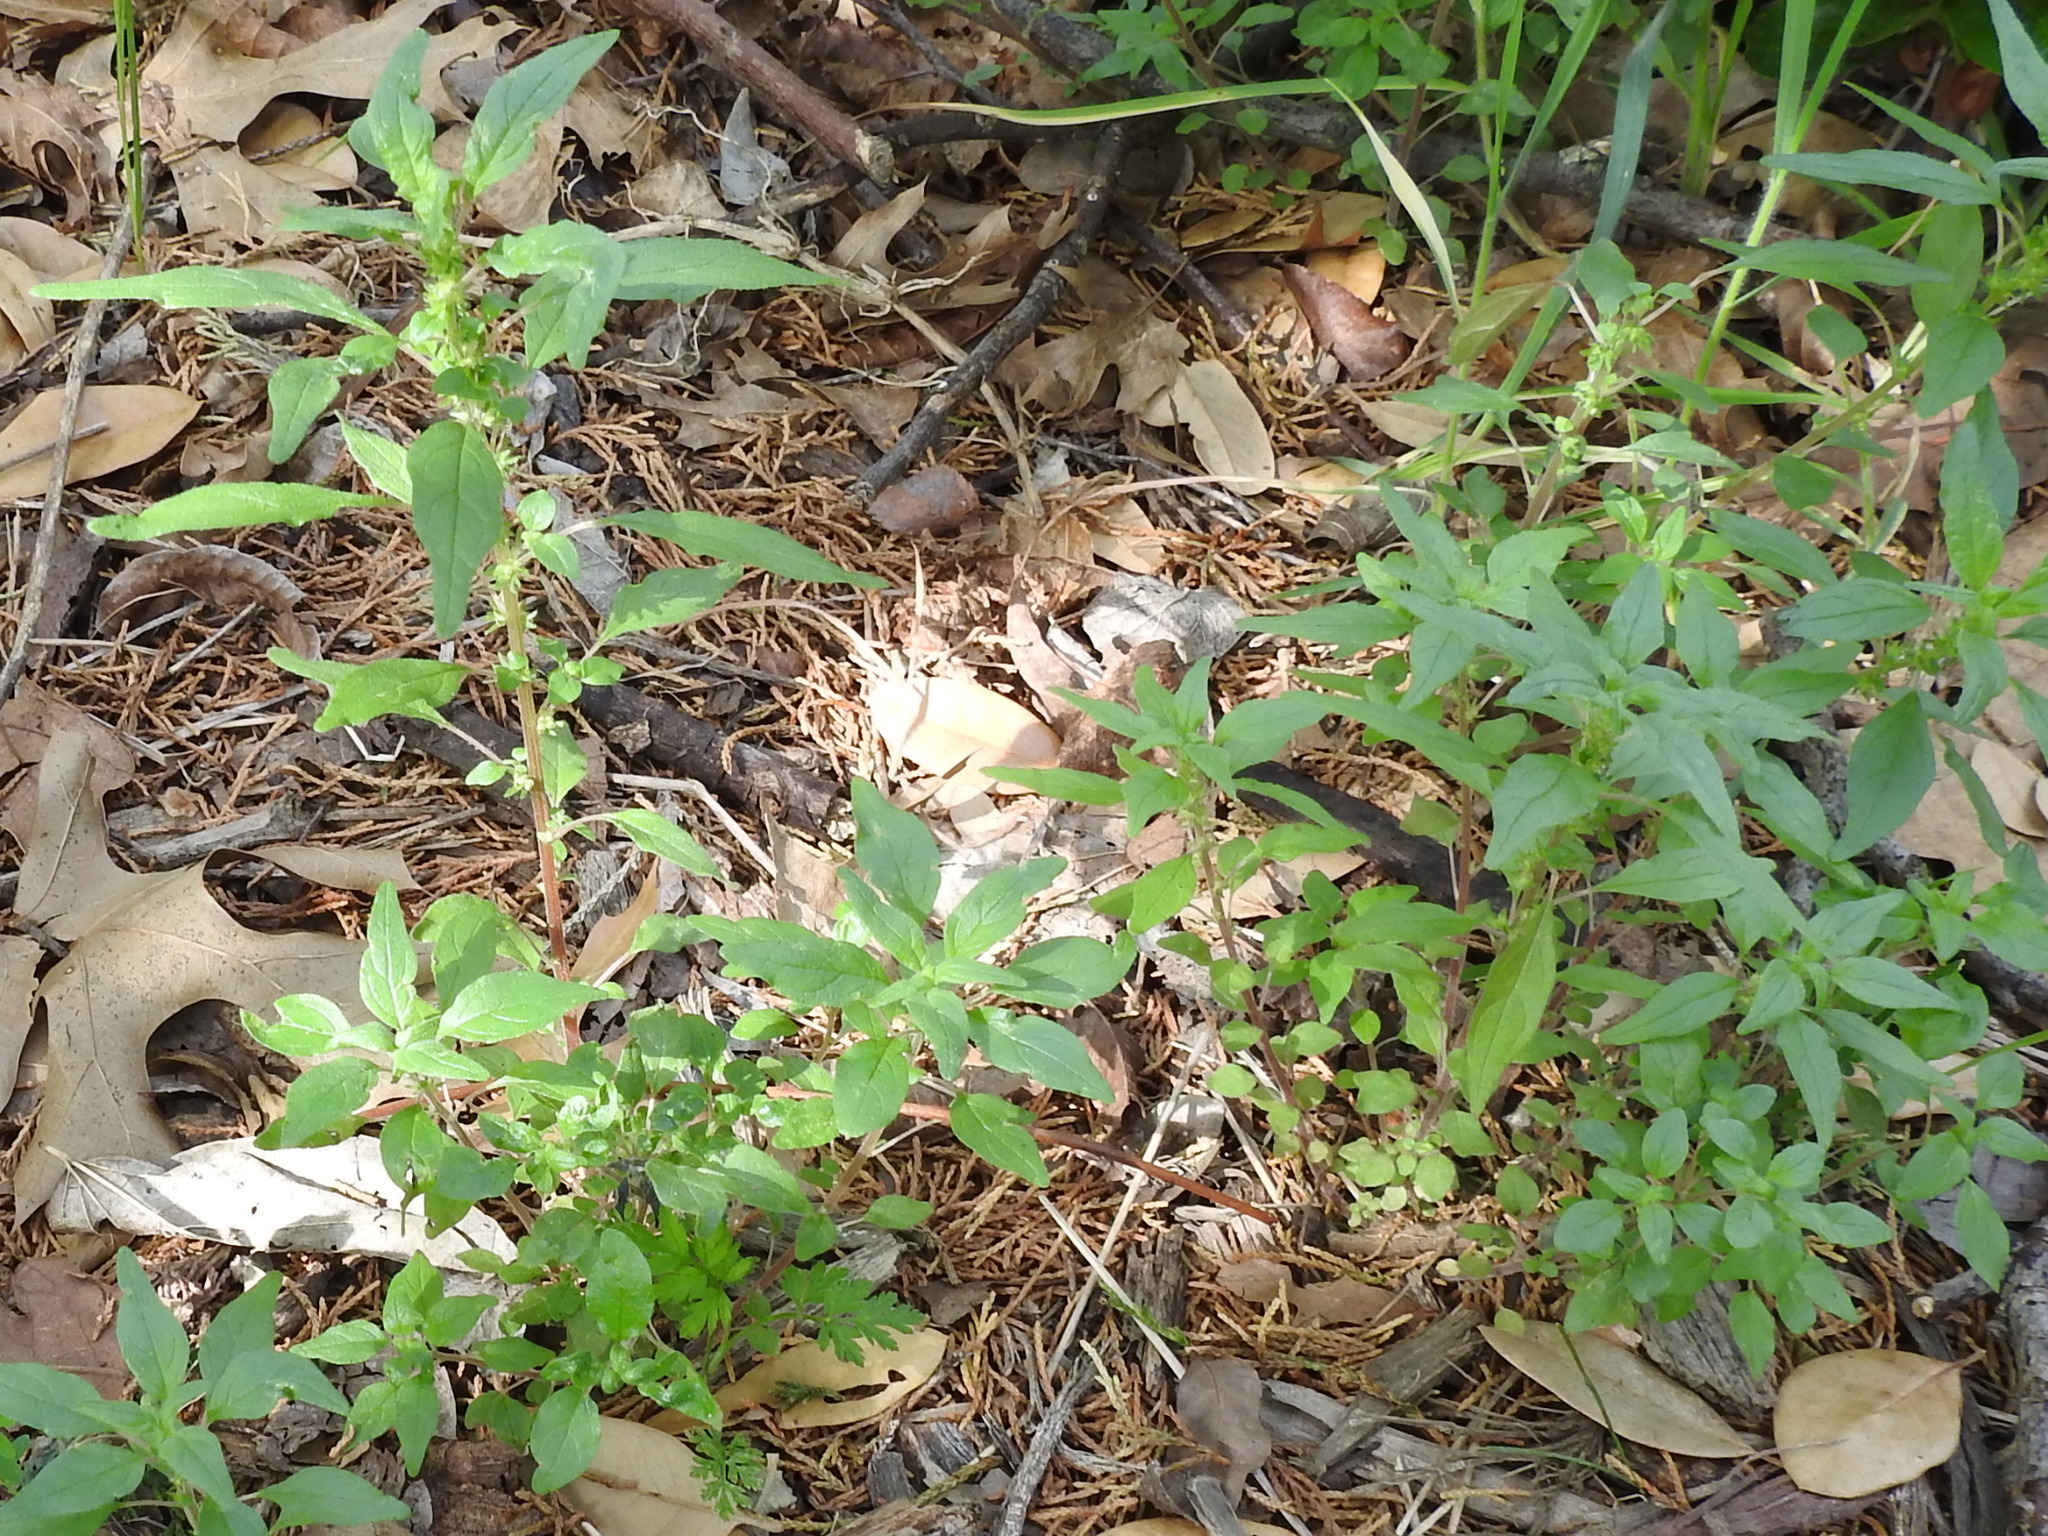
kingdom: Plantae
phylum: Tracheophyta
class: Magnoliopsida
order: Rosales
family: Urticaceae
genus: Parietaria
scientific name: Parietaria pensylvanica
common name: Pennsylvania pellitory
